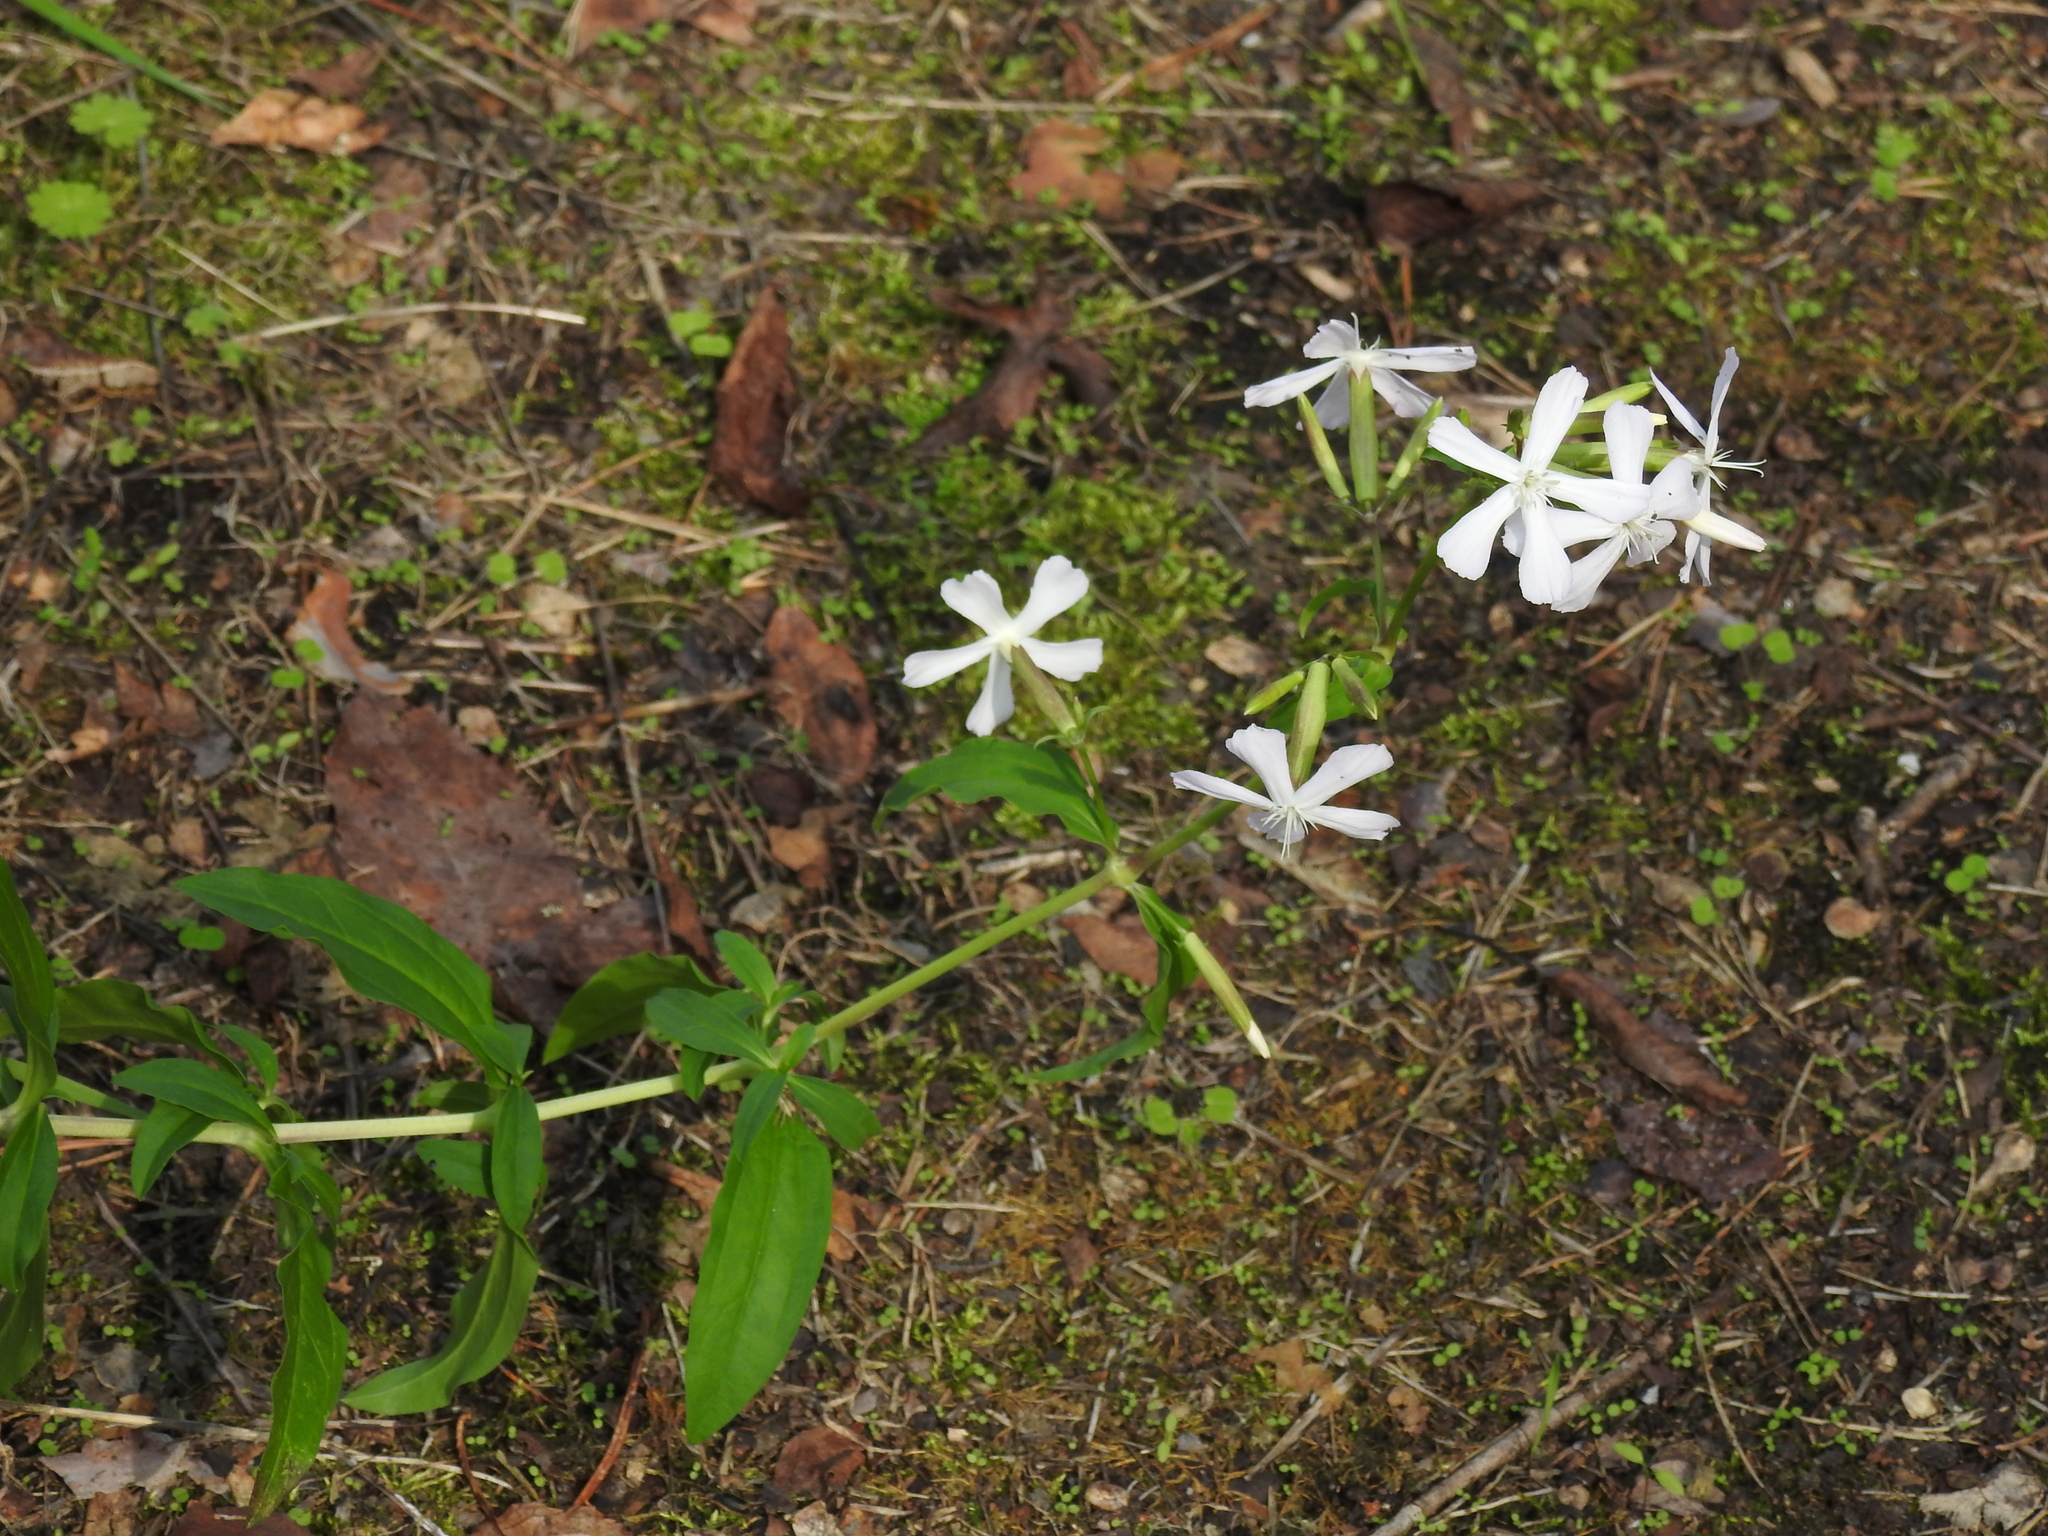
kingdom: Plantae
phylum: Tracheophyta
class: Magnoliopsida
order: Caryophyllales
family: Caryophyllaceae
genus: Saponaria
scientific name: Saponaria officinalis
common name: Soapwort
